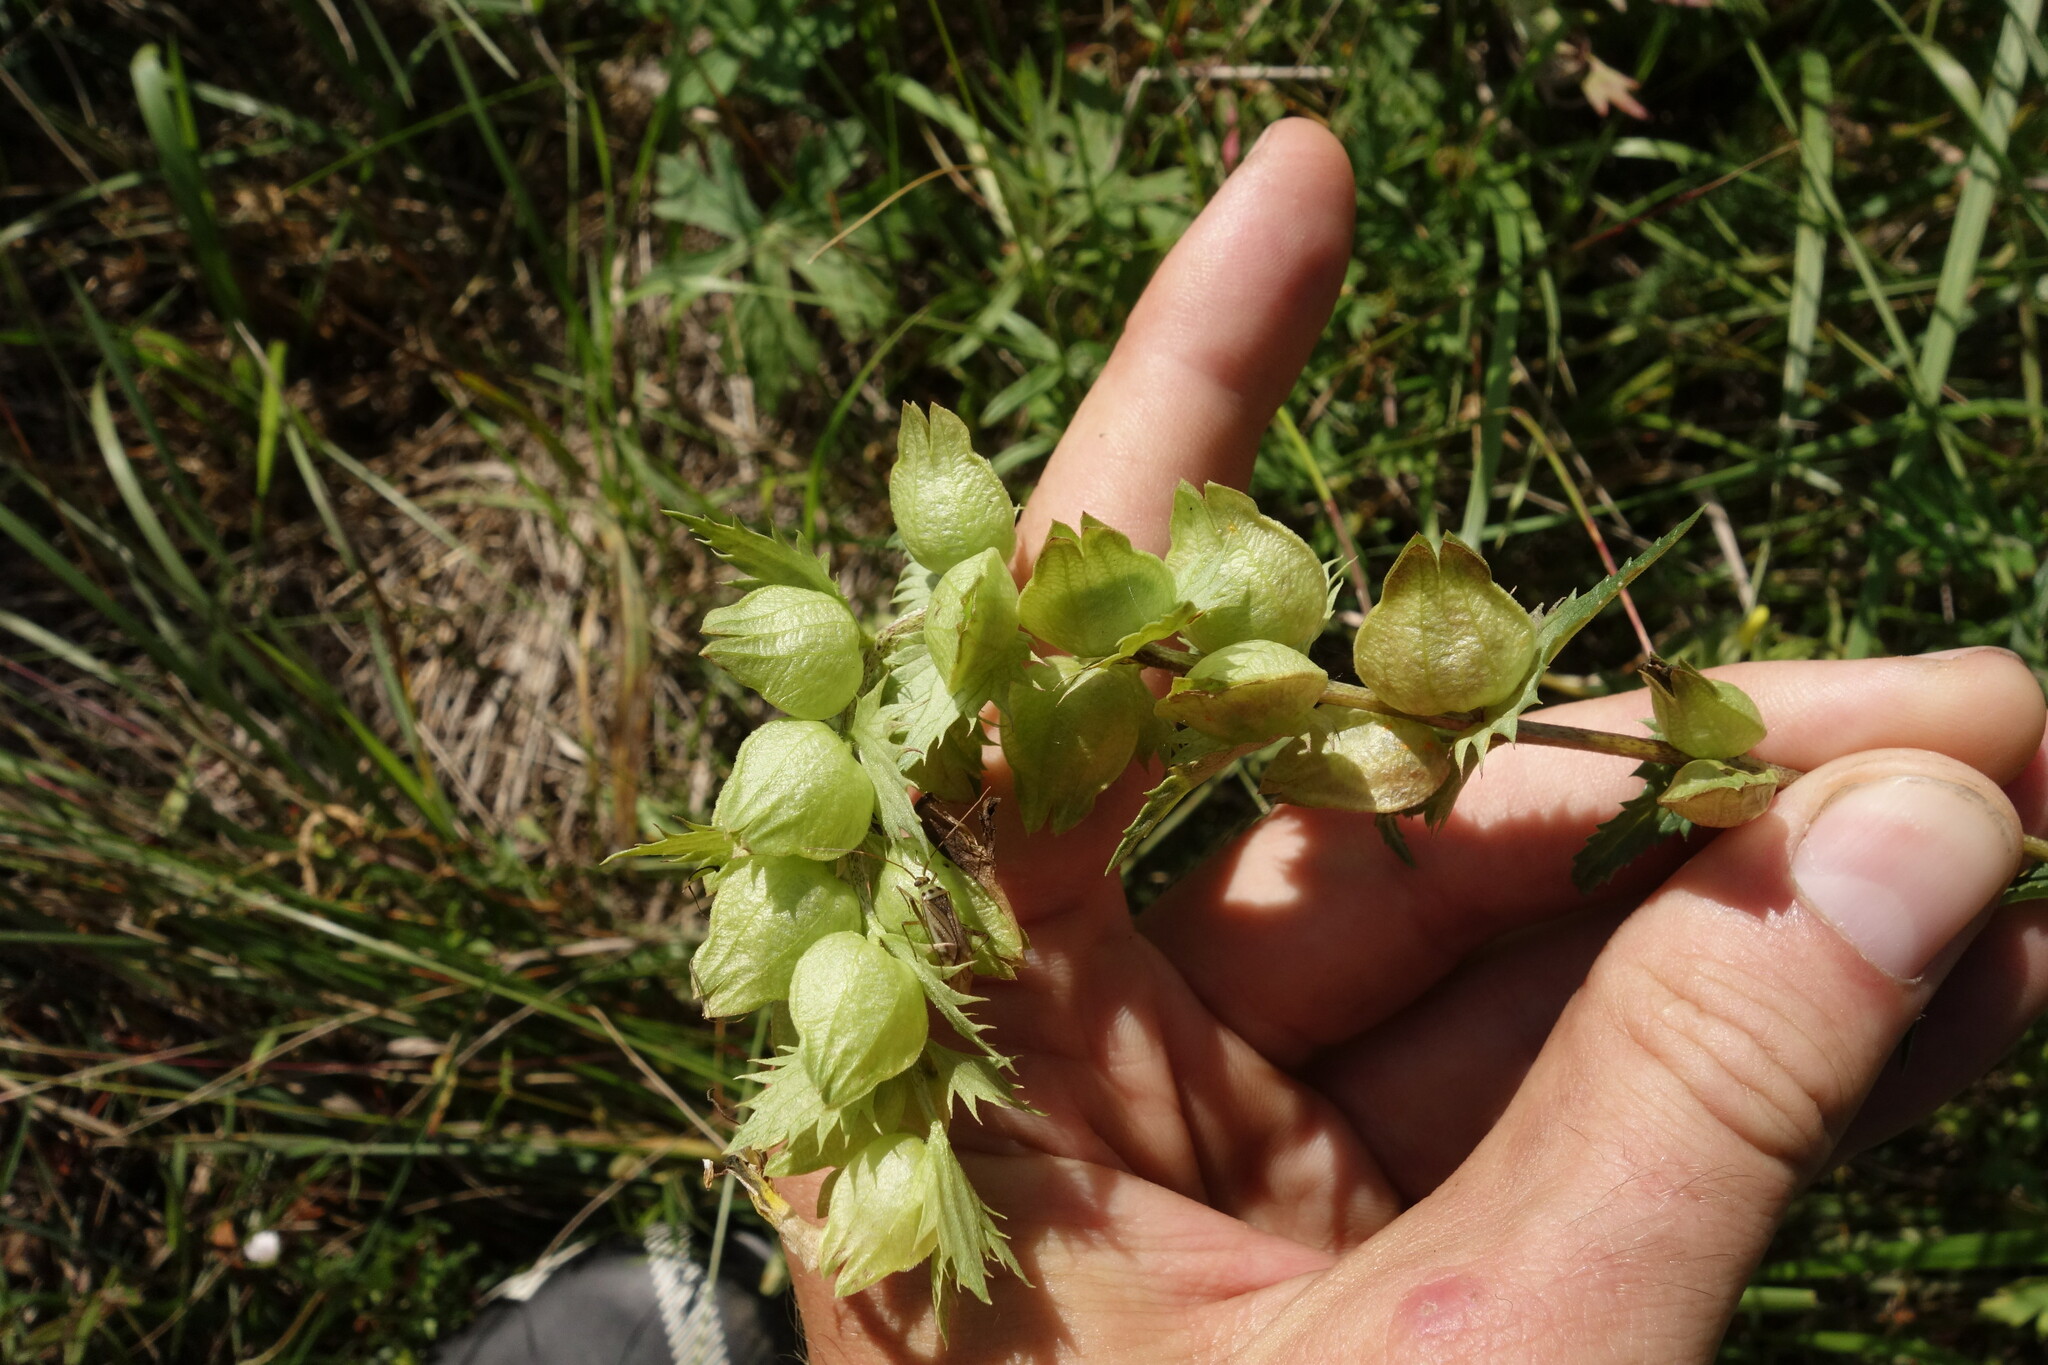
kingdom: Plantae
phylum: Tracheophyta
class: Magnoliopsida
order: Lamiales
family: Orobanchaceae
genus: Rhinanthus
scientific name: Rhinanthus serotinus
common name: Late-flowering yellow rattle
